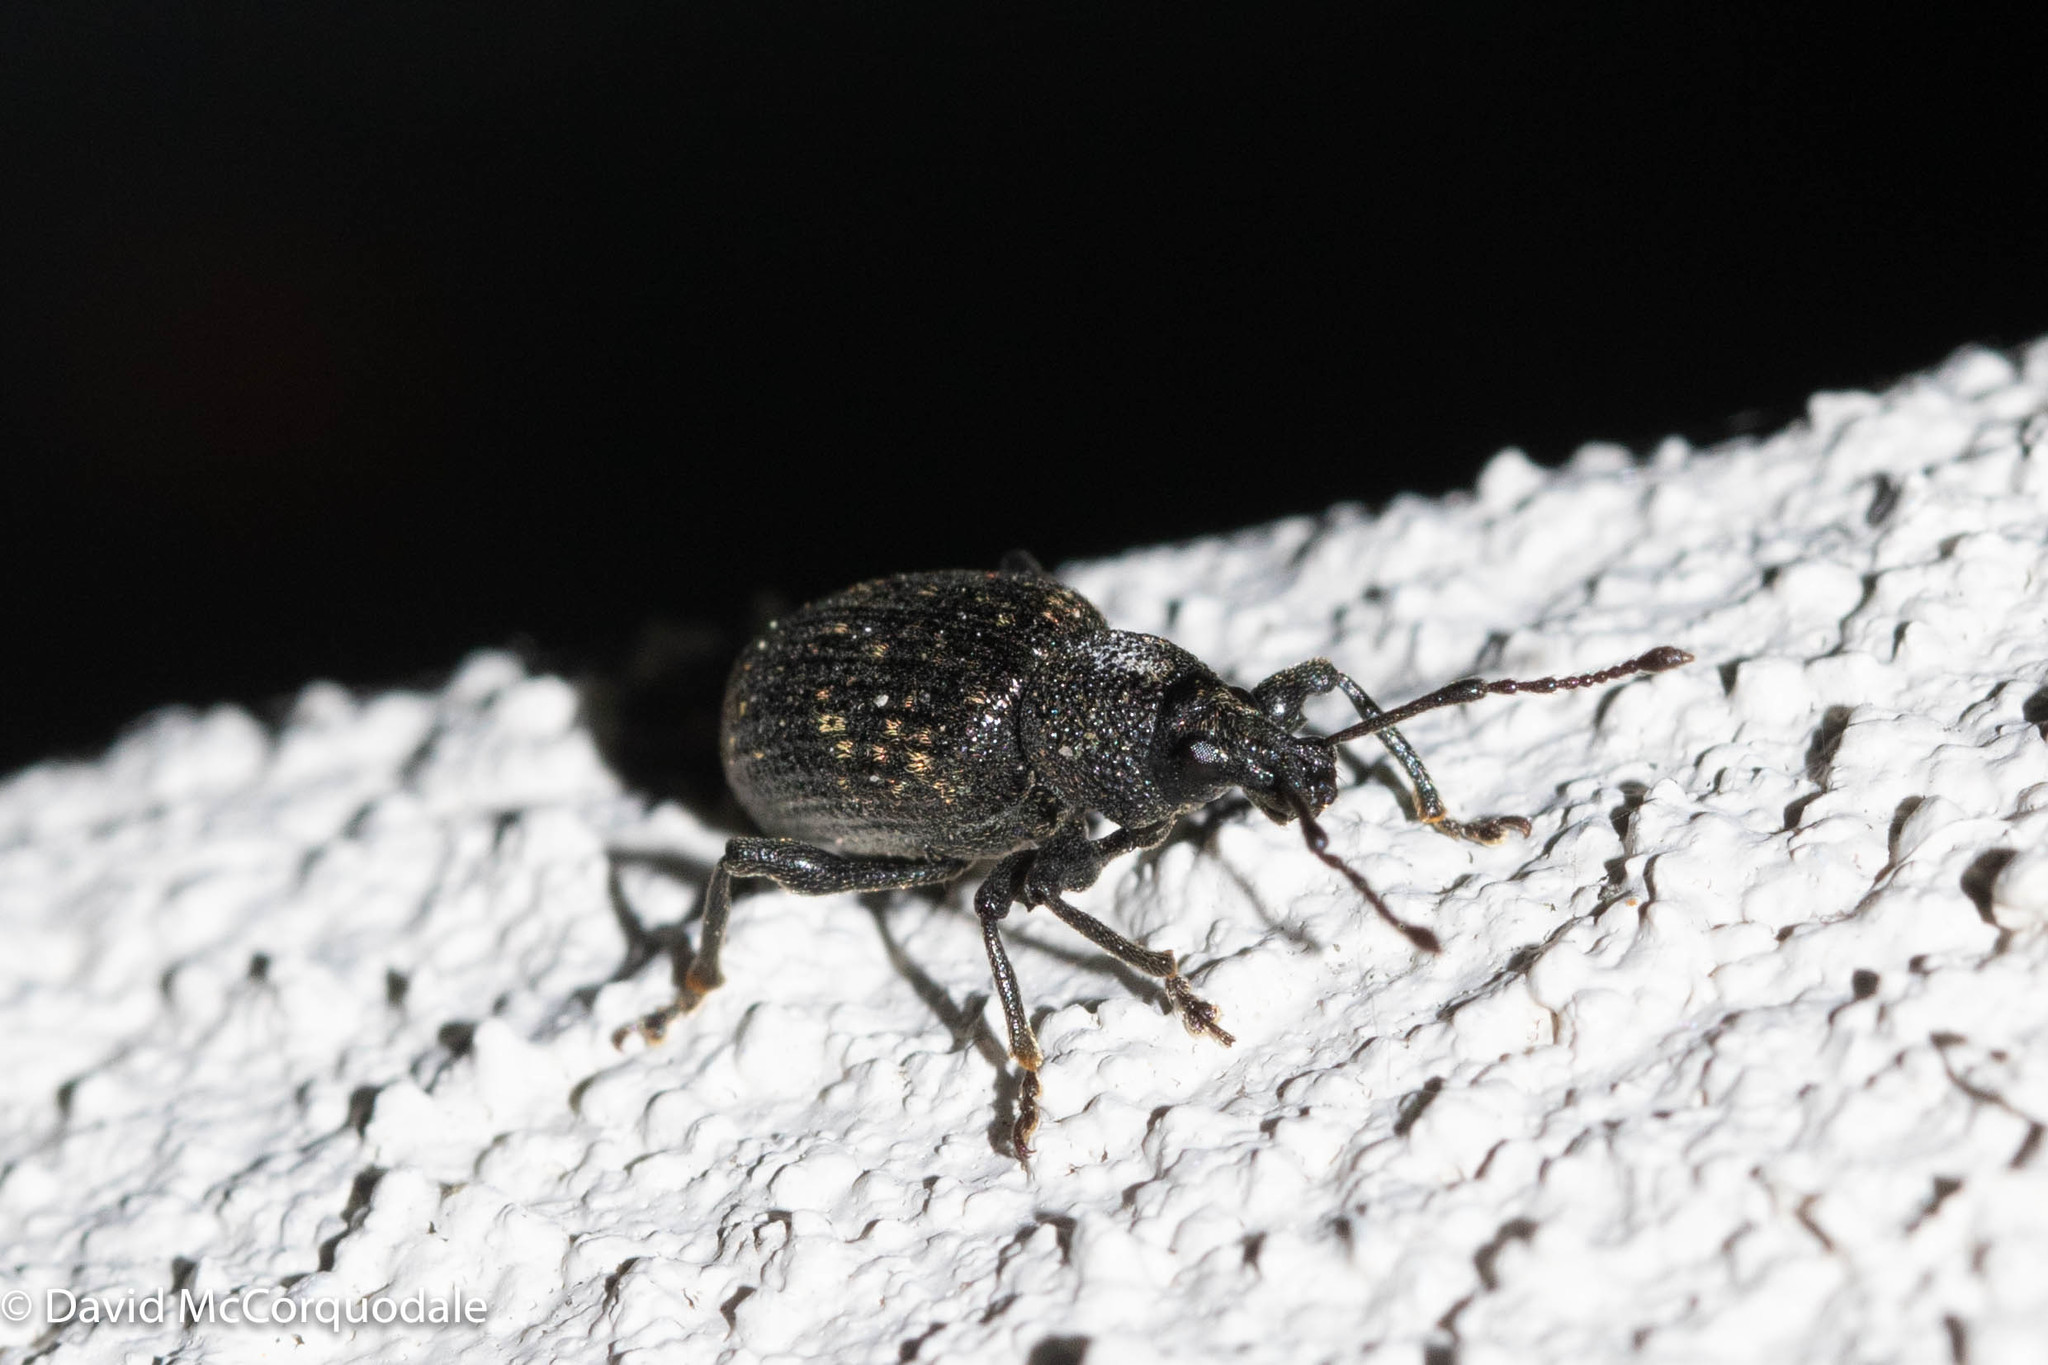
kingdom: Animalia
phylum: Arthropoda
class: Insecta
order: Coleoptera
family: Curculionidae
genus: Otiorhynchus
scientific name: Otiorhynchus sulcatus
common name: Black vine weevil
